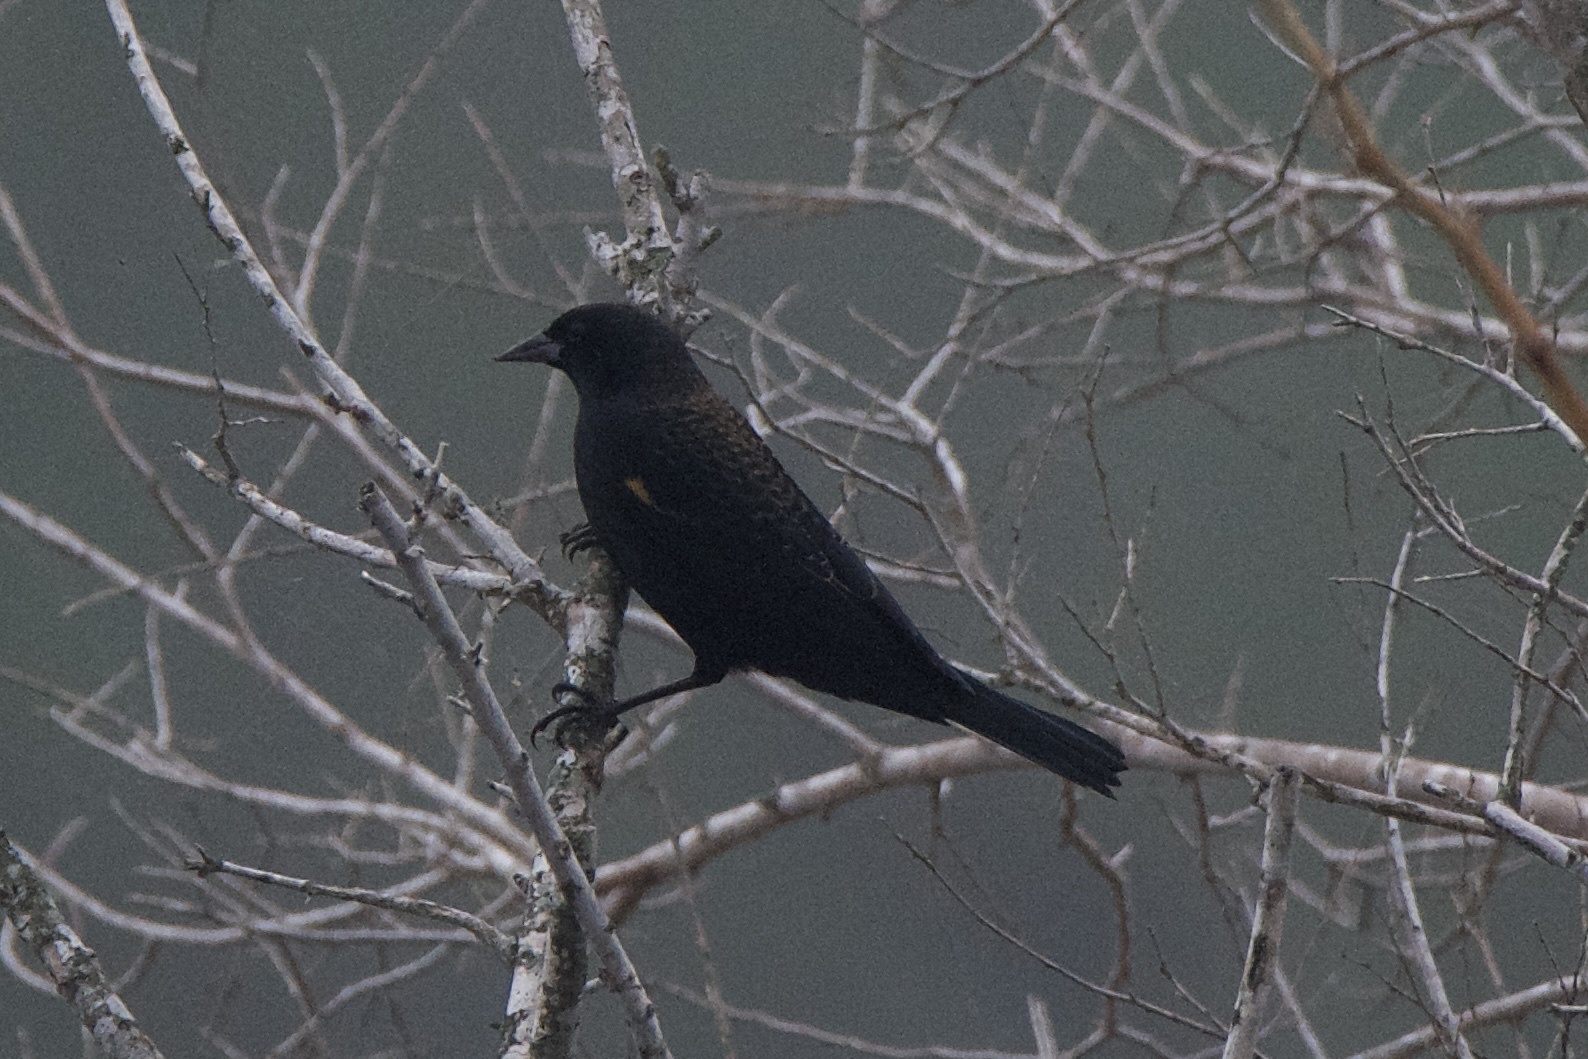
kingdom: Animalia
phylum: Chordata
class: Aves
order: Passeriformes
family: Icteridae
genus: Agelaius
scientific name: Agelaius phoeniceus
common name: Red-winged blackbird
